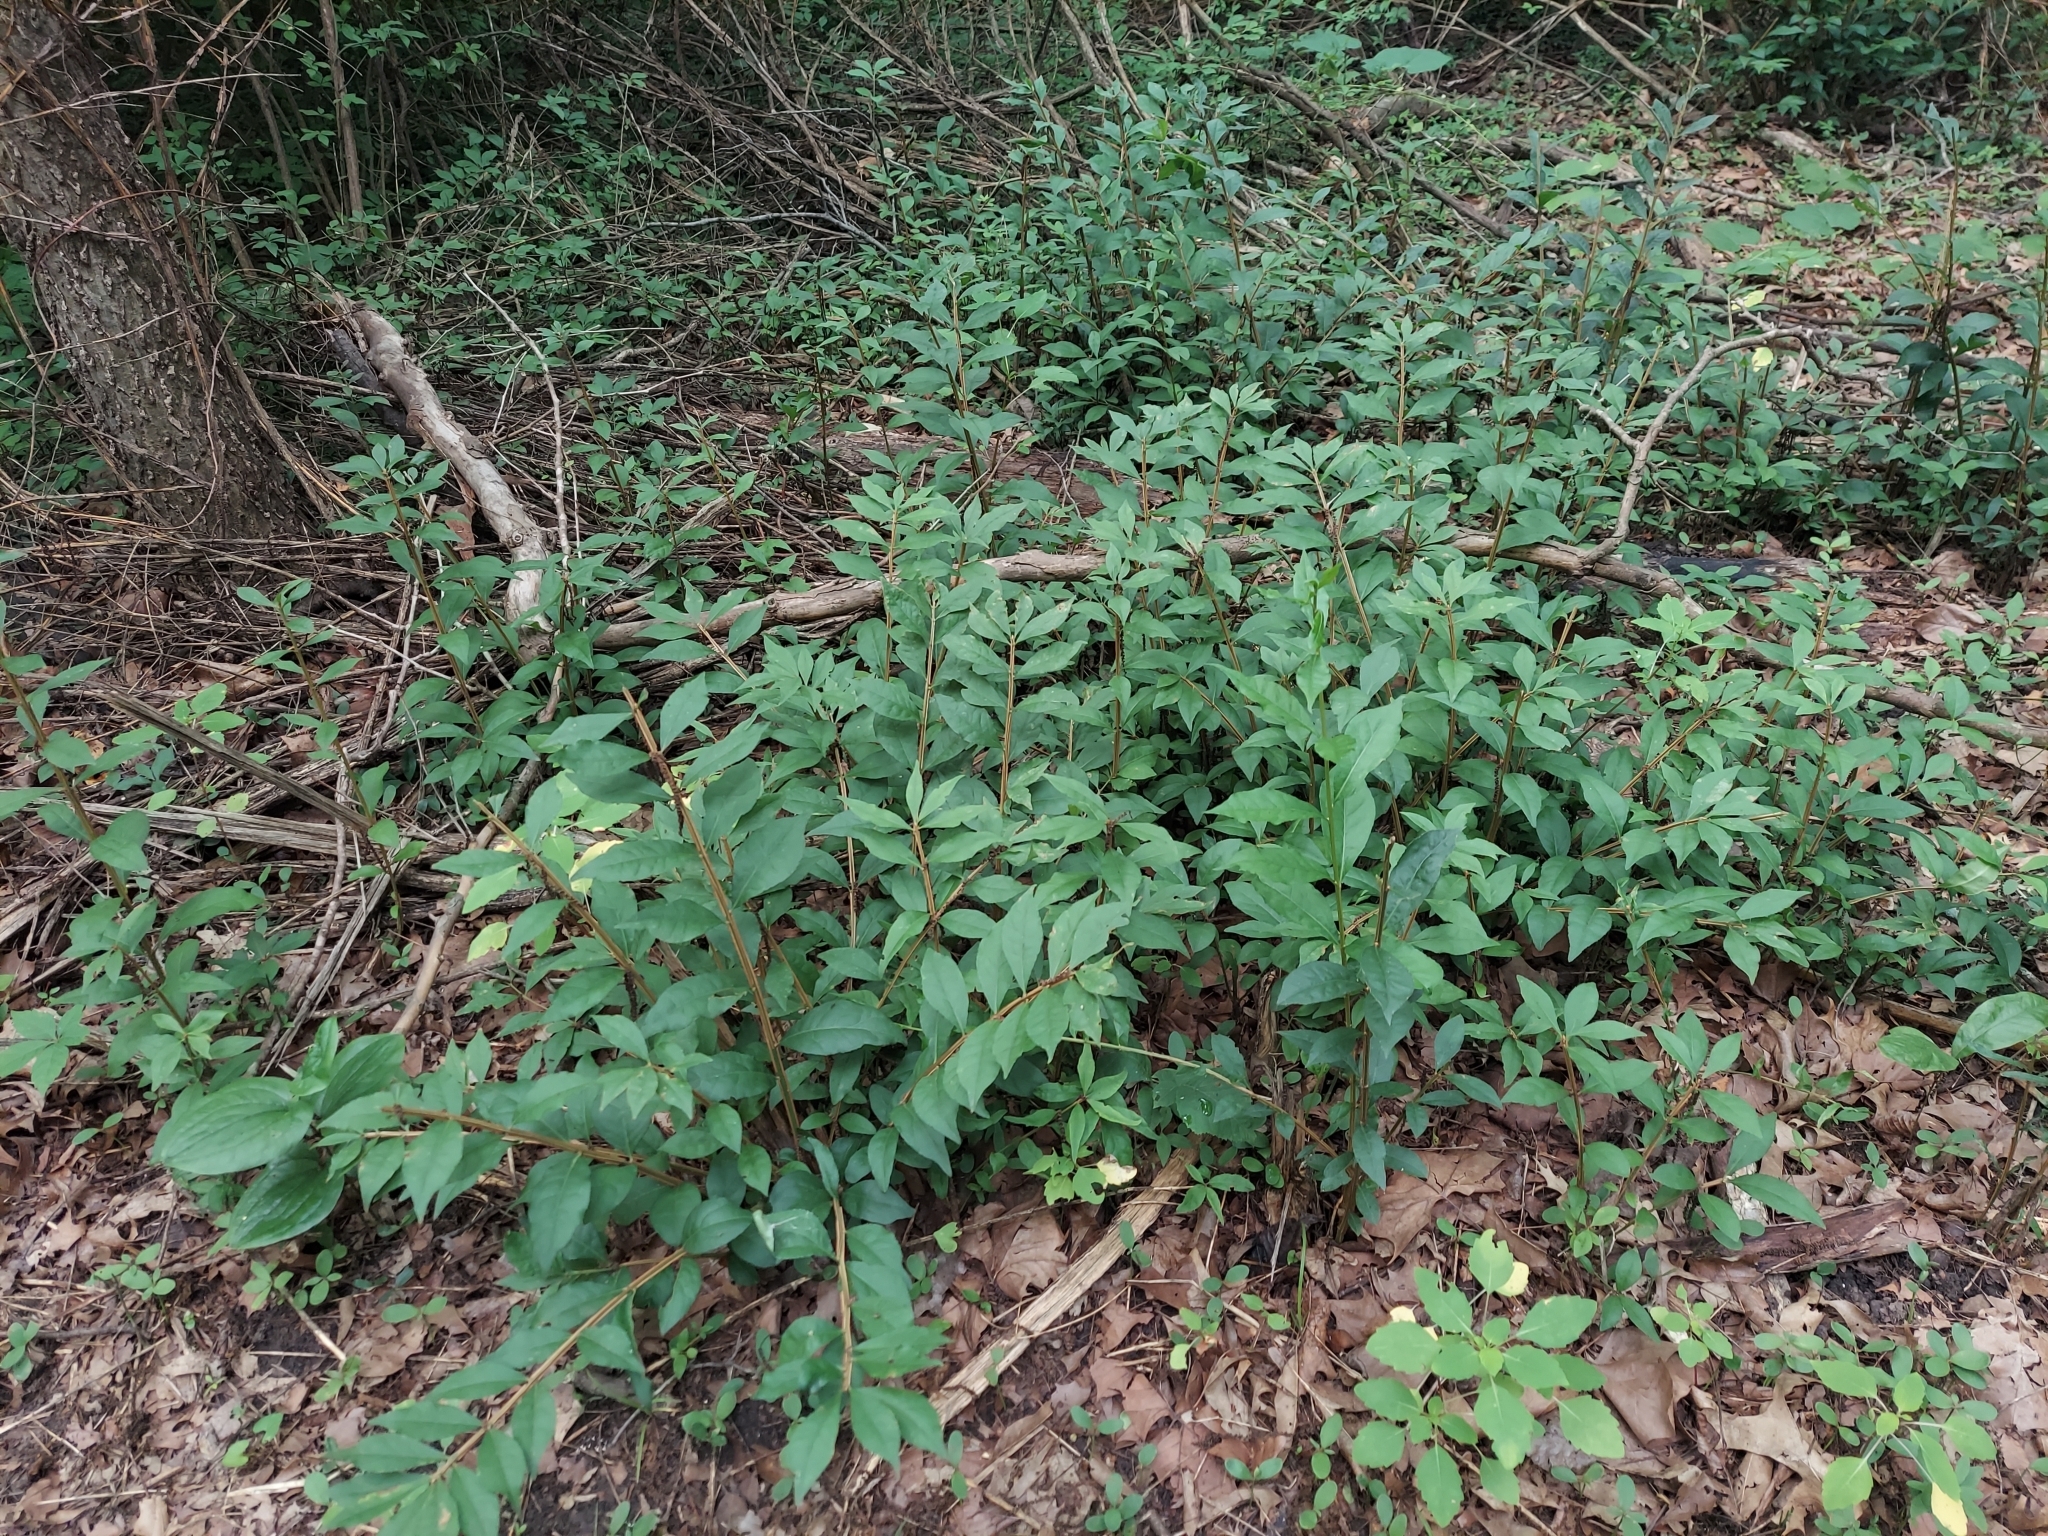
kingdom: Plantae
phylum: Tracheophyta
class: Magnoliopsida
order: Celastrales
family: Celastraceae
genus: Euonymus
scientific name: Euonymus alatus
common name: Winged euonymus
